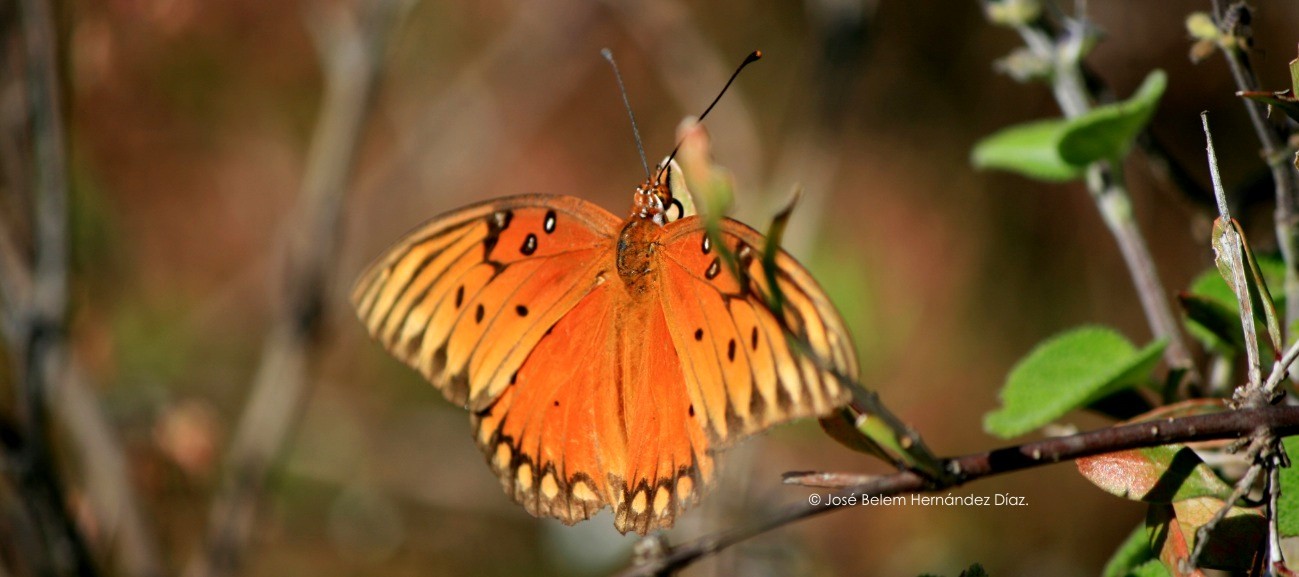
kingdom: Animalia
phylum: Arthropoda
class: Insecta
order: Lepidoptera
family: Nymphalidae
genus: Dione
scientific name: Dione vanillae
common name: Gulf fritillary
